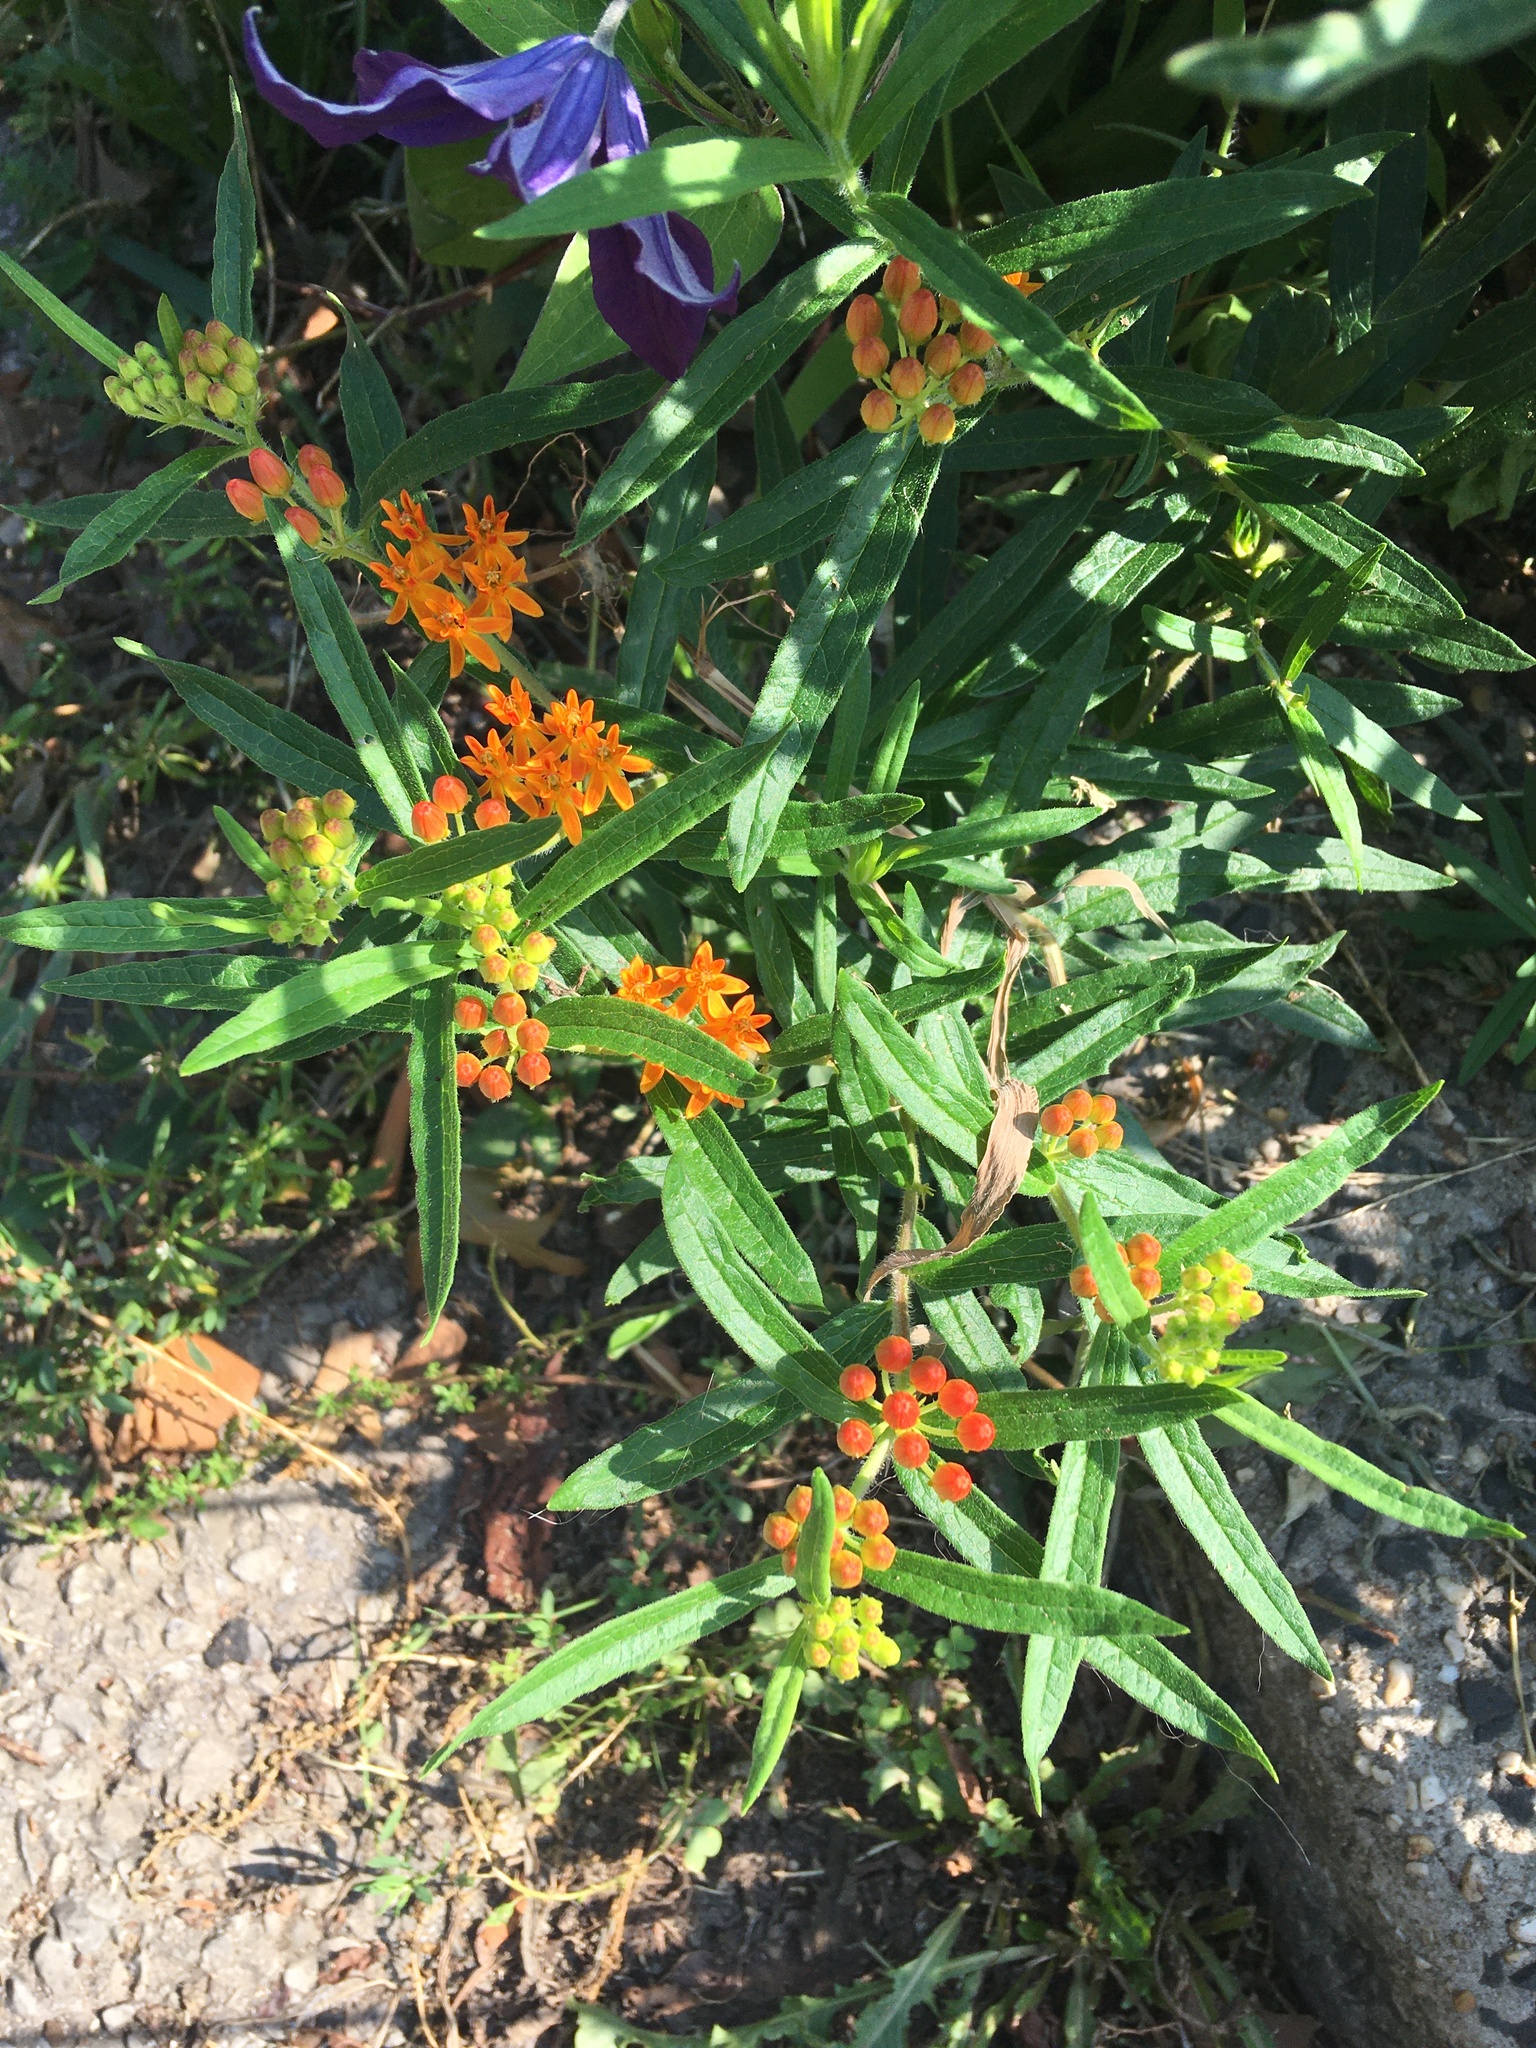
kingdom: Plantae
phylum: Tracheophyta
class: Magnoliopsida
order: Gentianales
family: Apocynaceae
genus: Asclepias
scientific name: Asclepias tuberosa
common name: Butterfly milkweed
